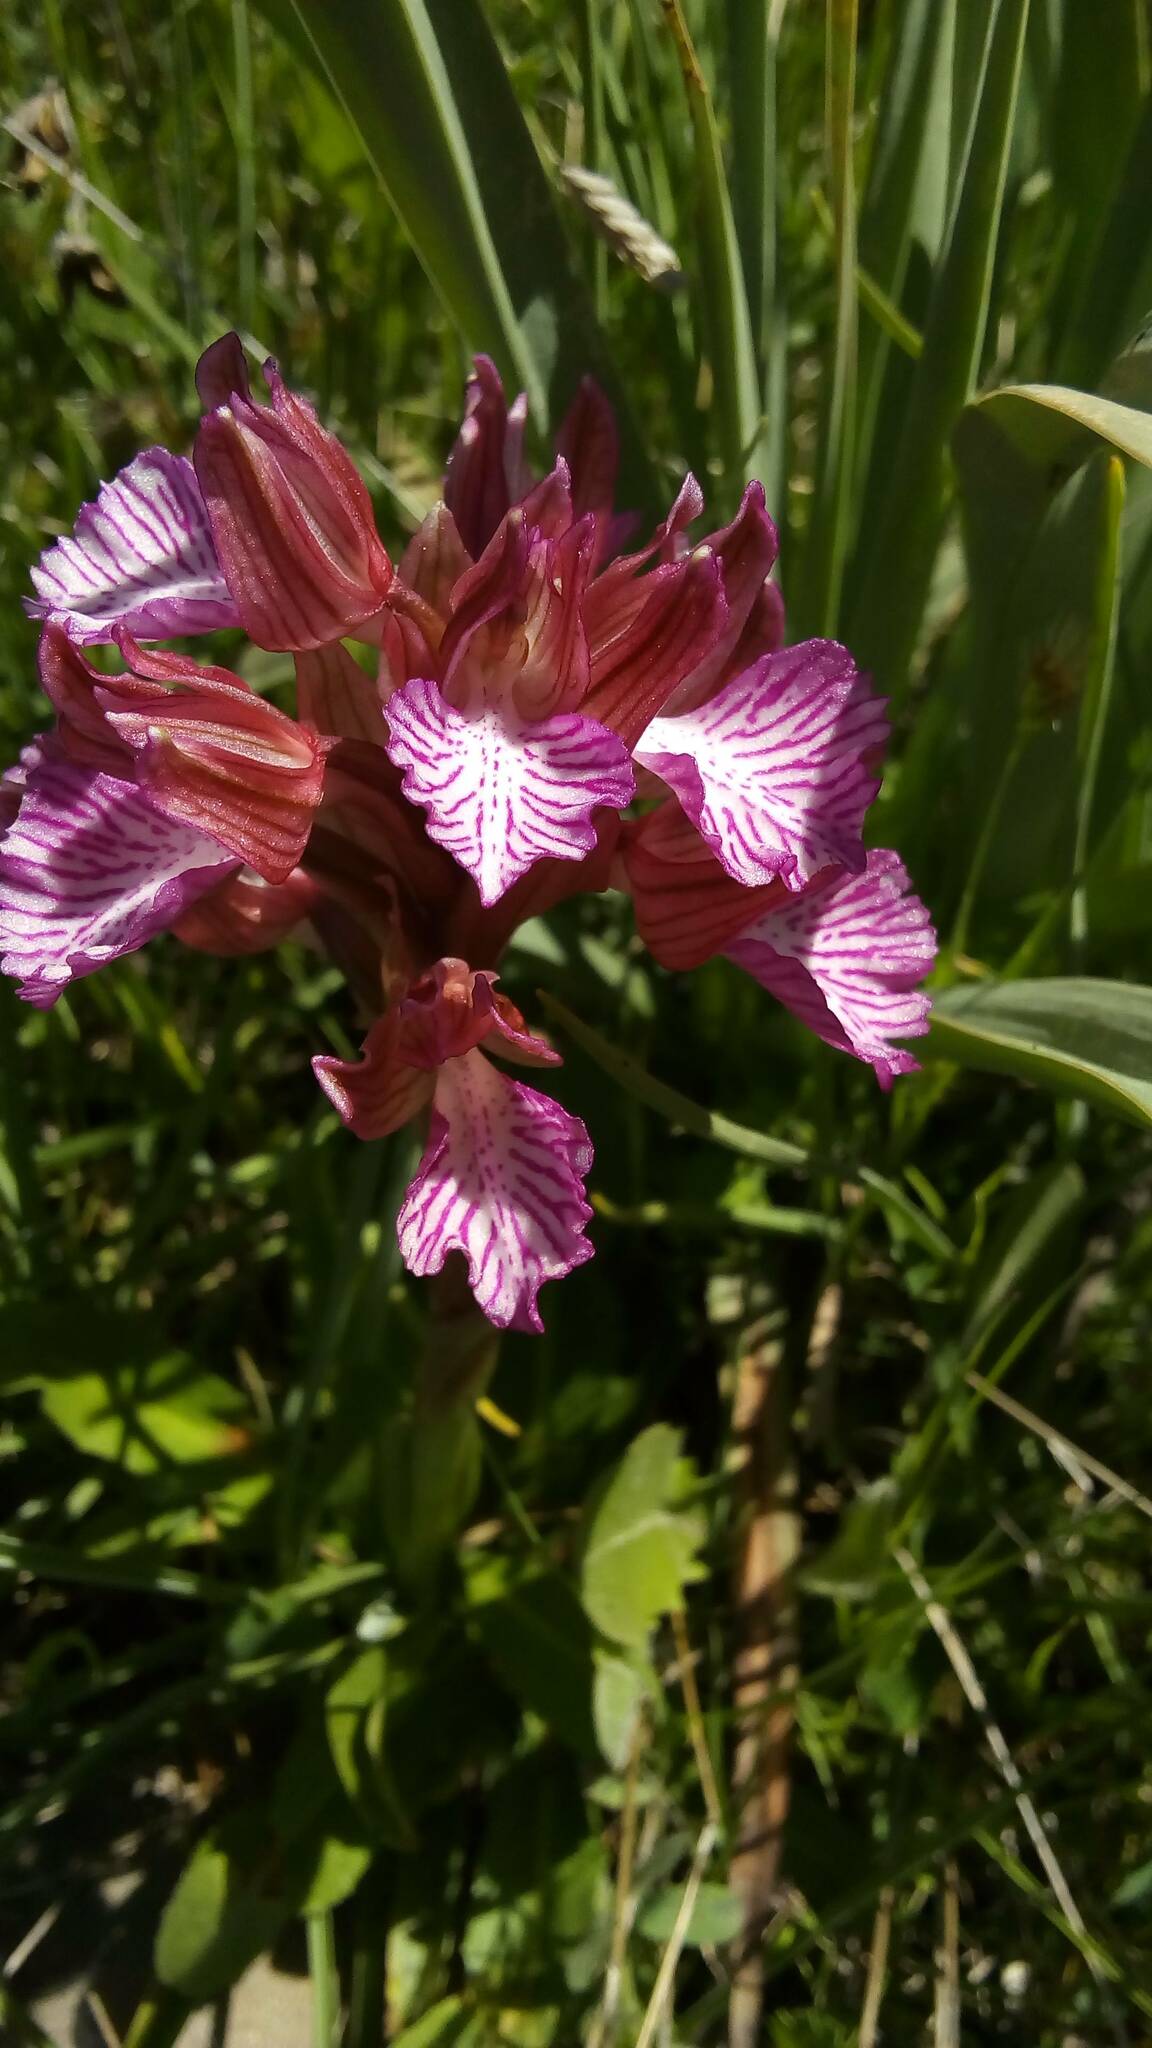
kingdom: Plantae
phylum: Tracheophyta
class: Liliopsida
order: Asparagales
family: Orchidaceae
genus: Anacamptis
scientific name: Anacamptis papilionacea
